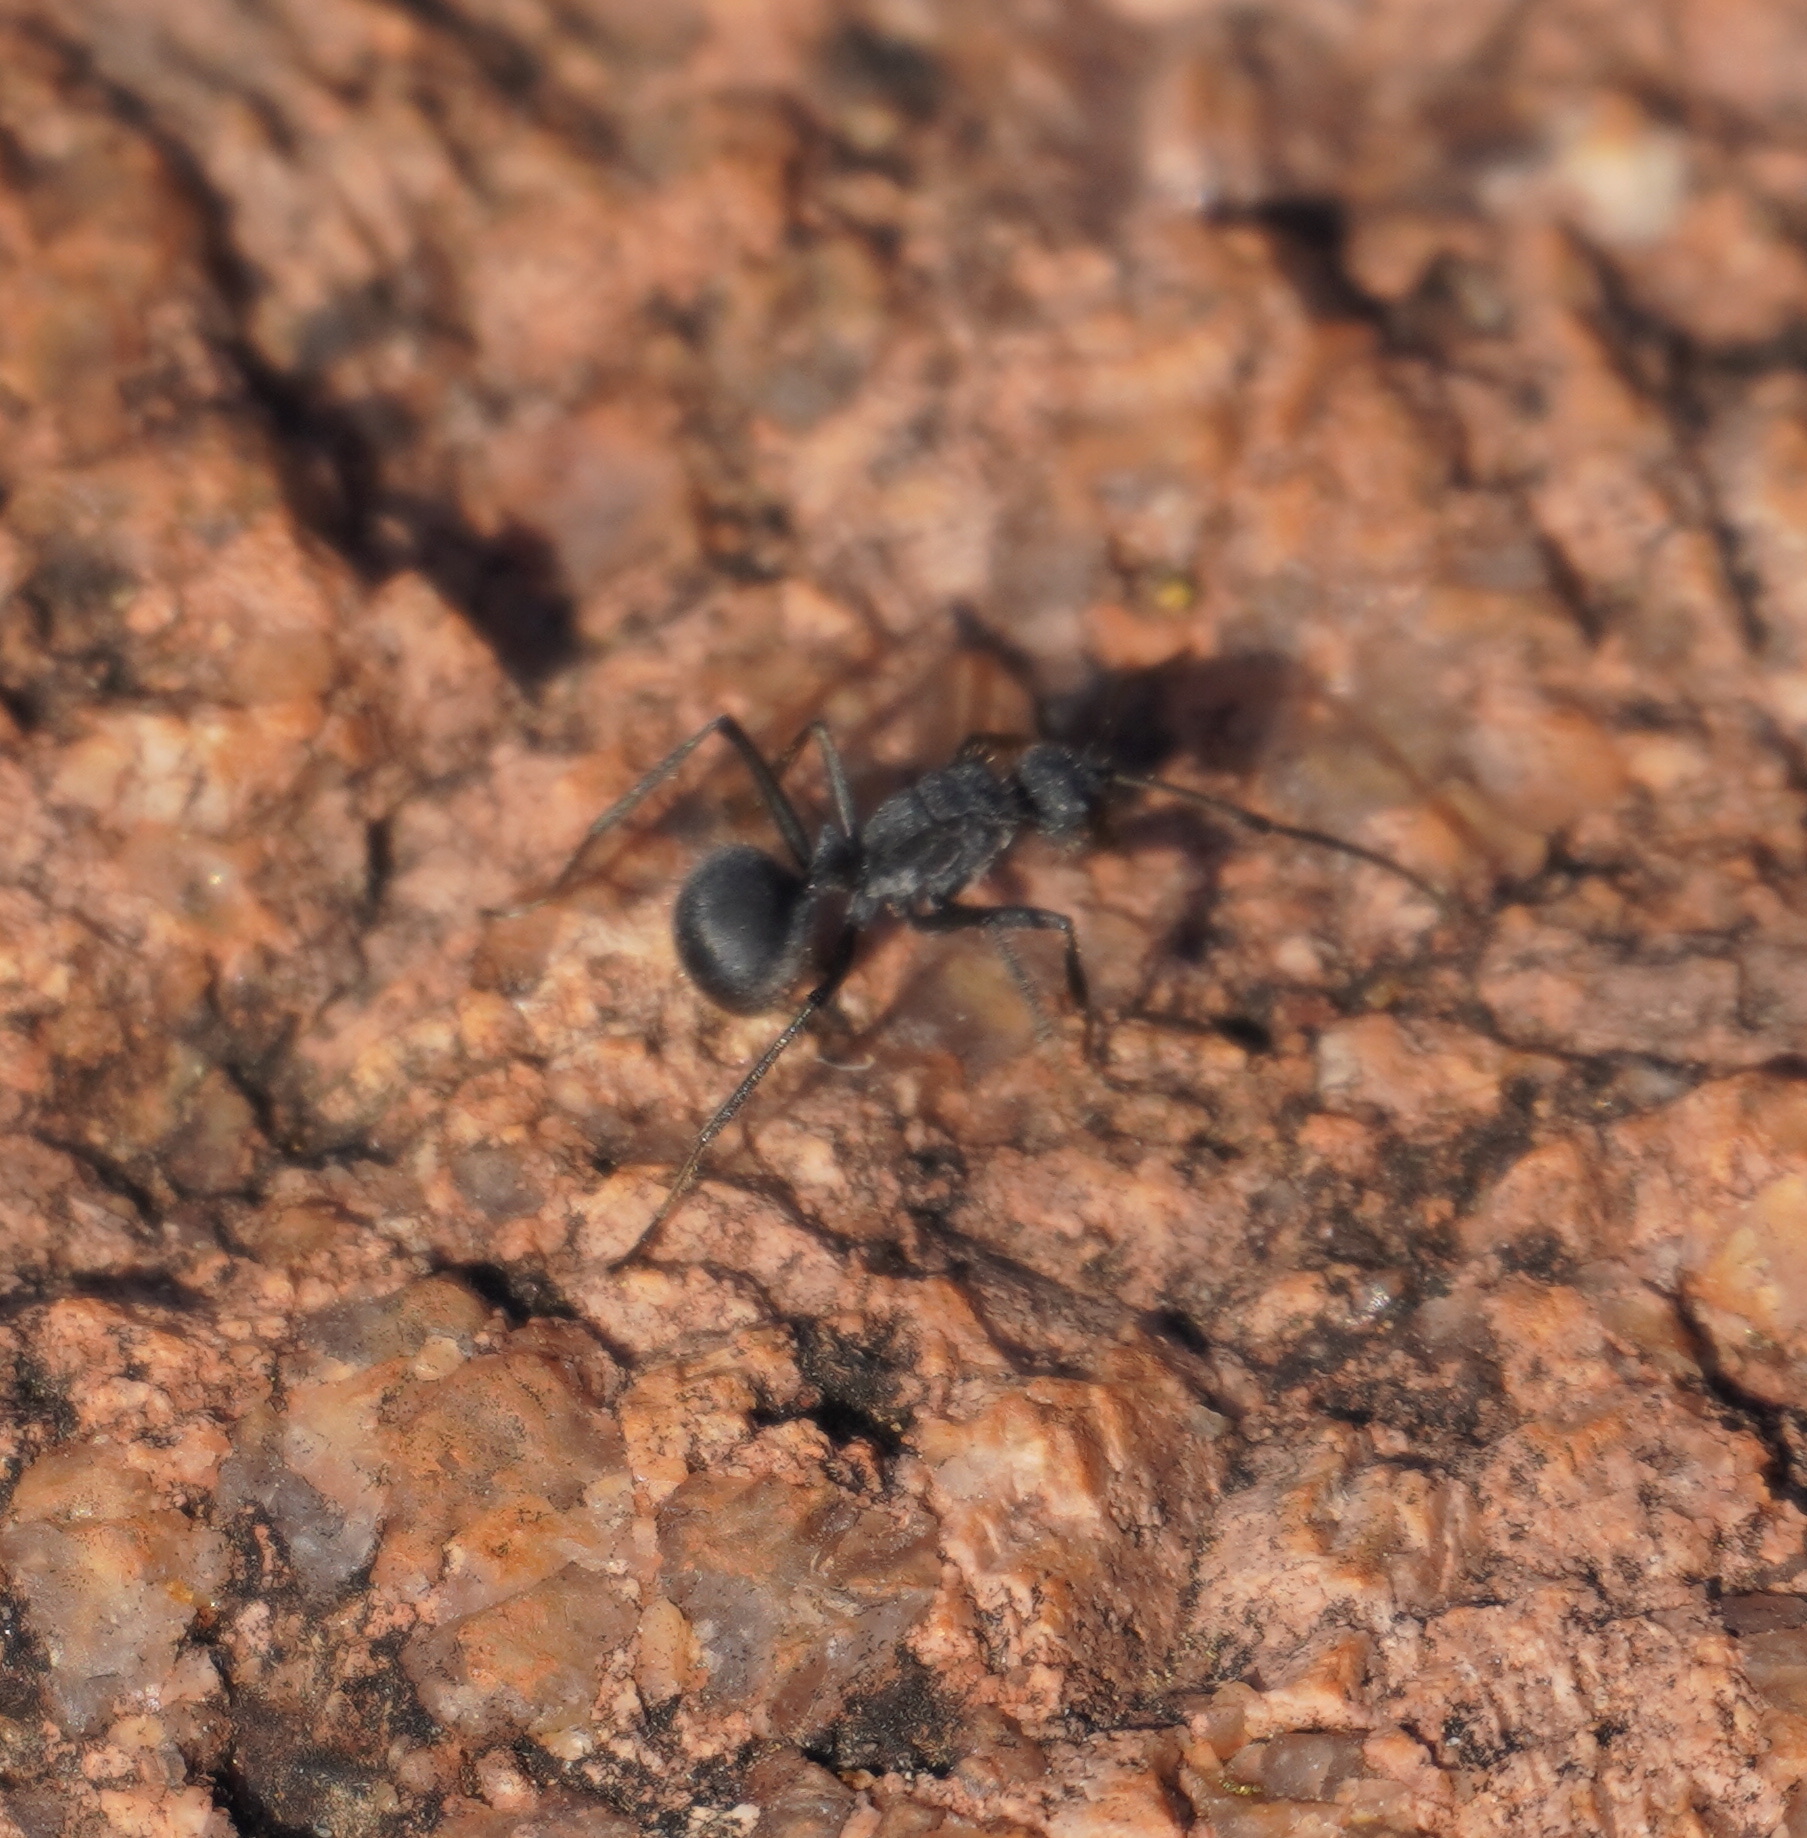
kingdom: Animalia
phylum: Arthropoda
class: Insecta
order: Hymenoptera
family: Formicidae
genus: Polyrhachis
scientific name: Polyrhachis schistacea
